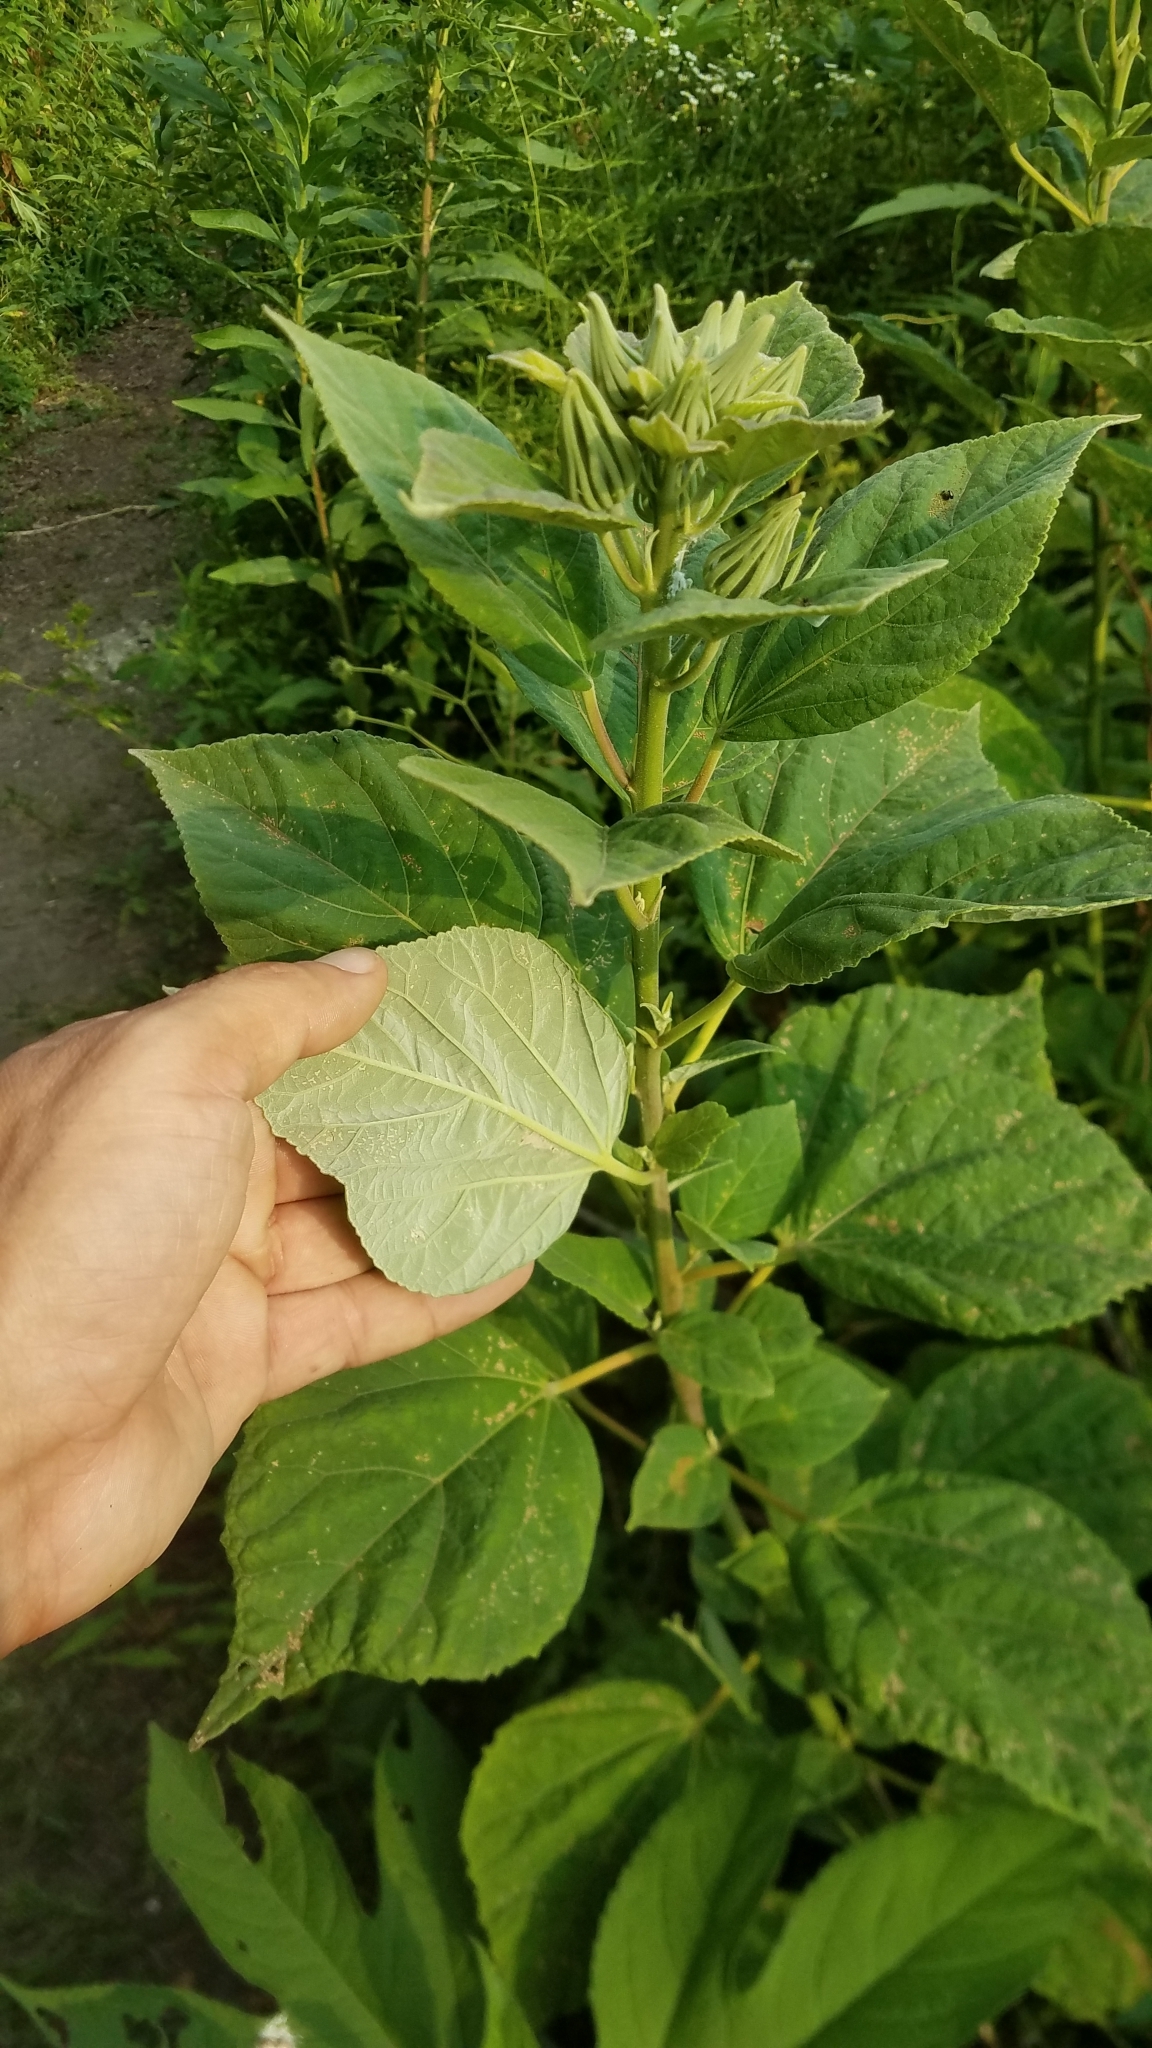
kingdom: Plantae
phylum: Tracheophyta
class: Magnoliopsida
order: Malvales
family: Malvaceae
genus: Hibiscus
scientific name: Hibiscus moscheutos
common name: Common rose-mallow
